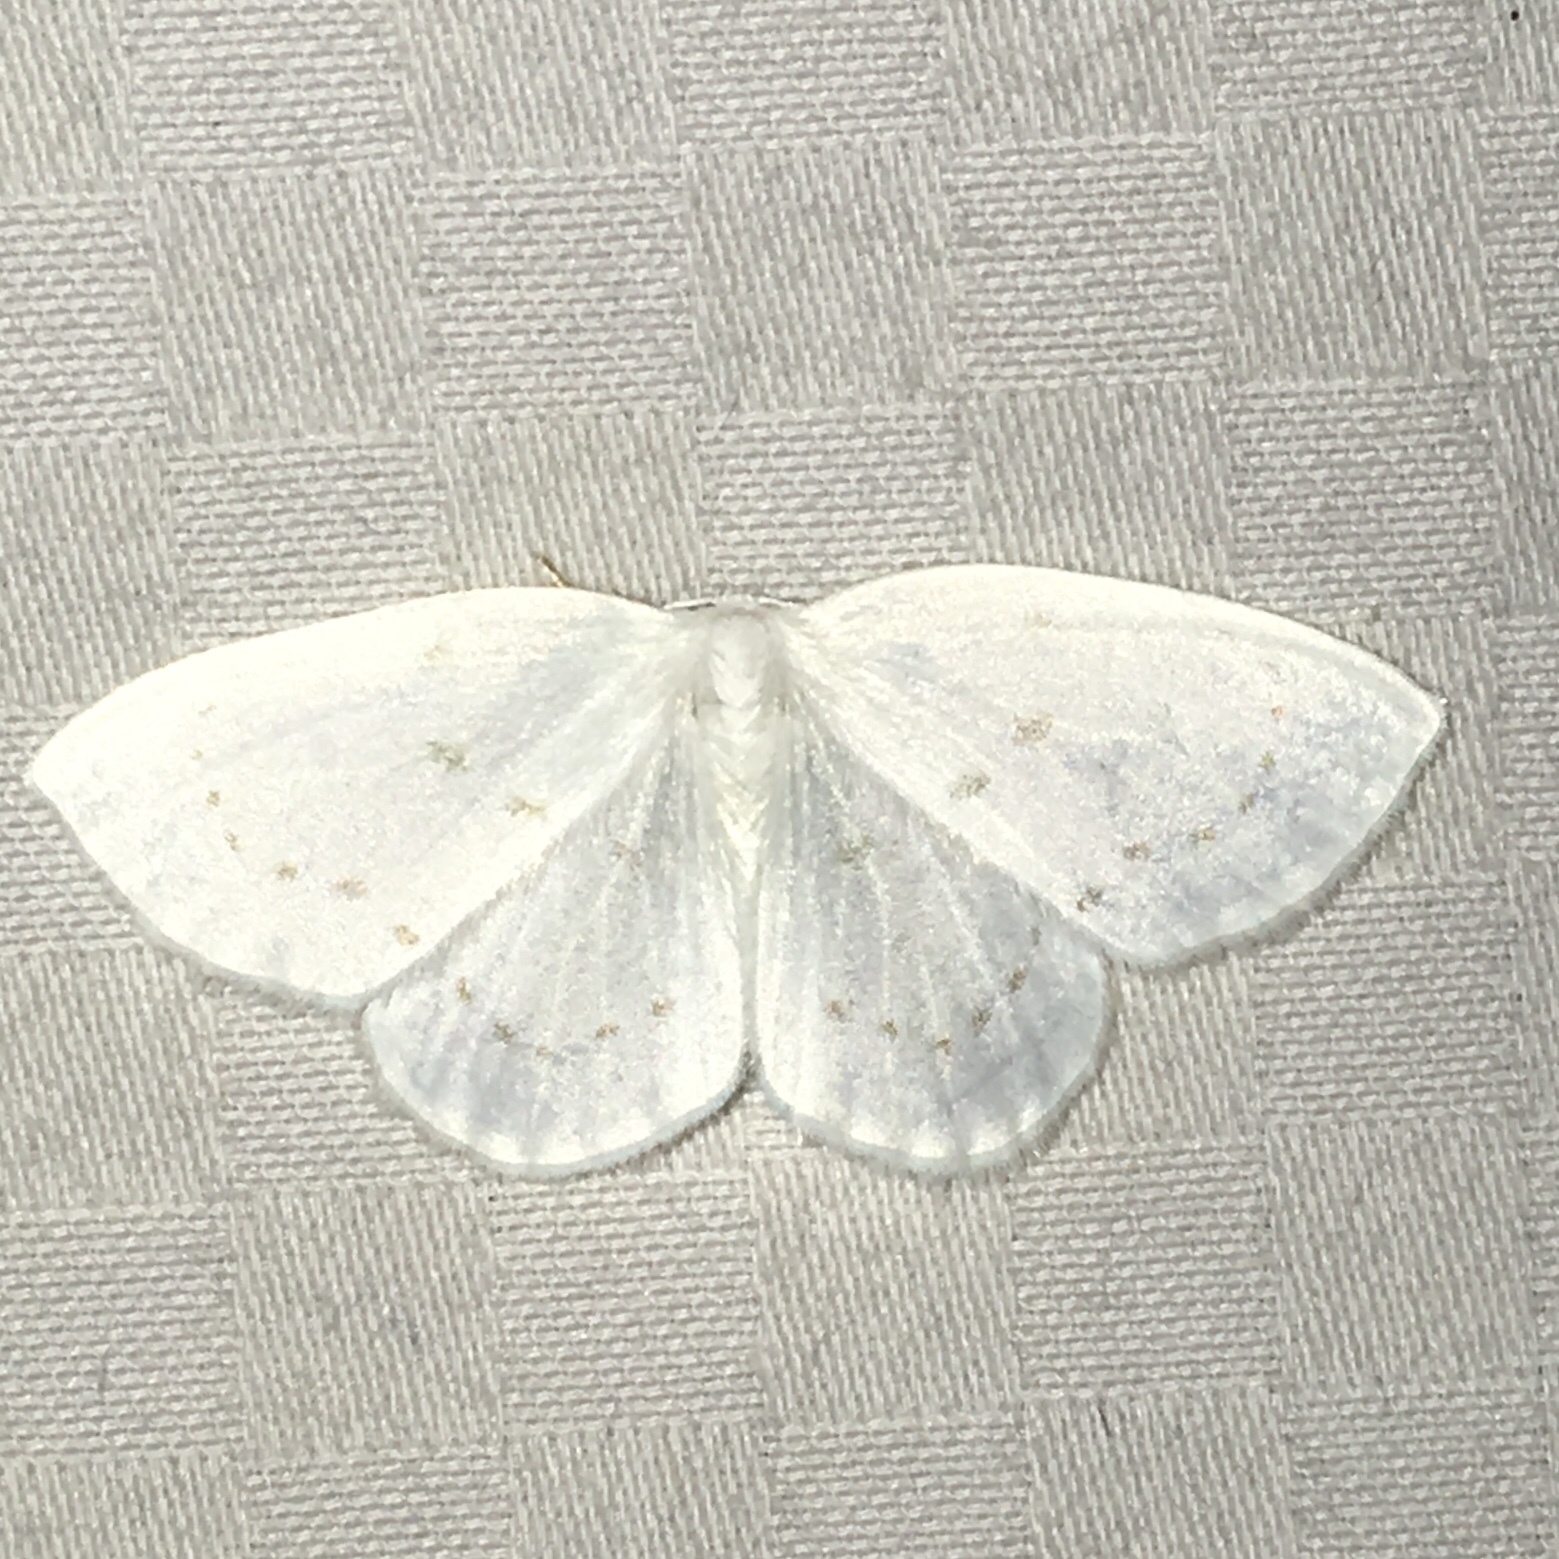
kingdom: Animalia
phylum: Arthropoda
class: Insecta
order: Lepidoptera
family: Drepanidae
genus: Eudeilinia
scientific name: Eudeilinia herminiata
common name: Northern eudeilinea moth
